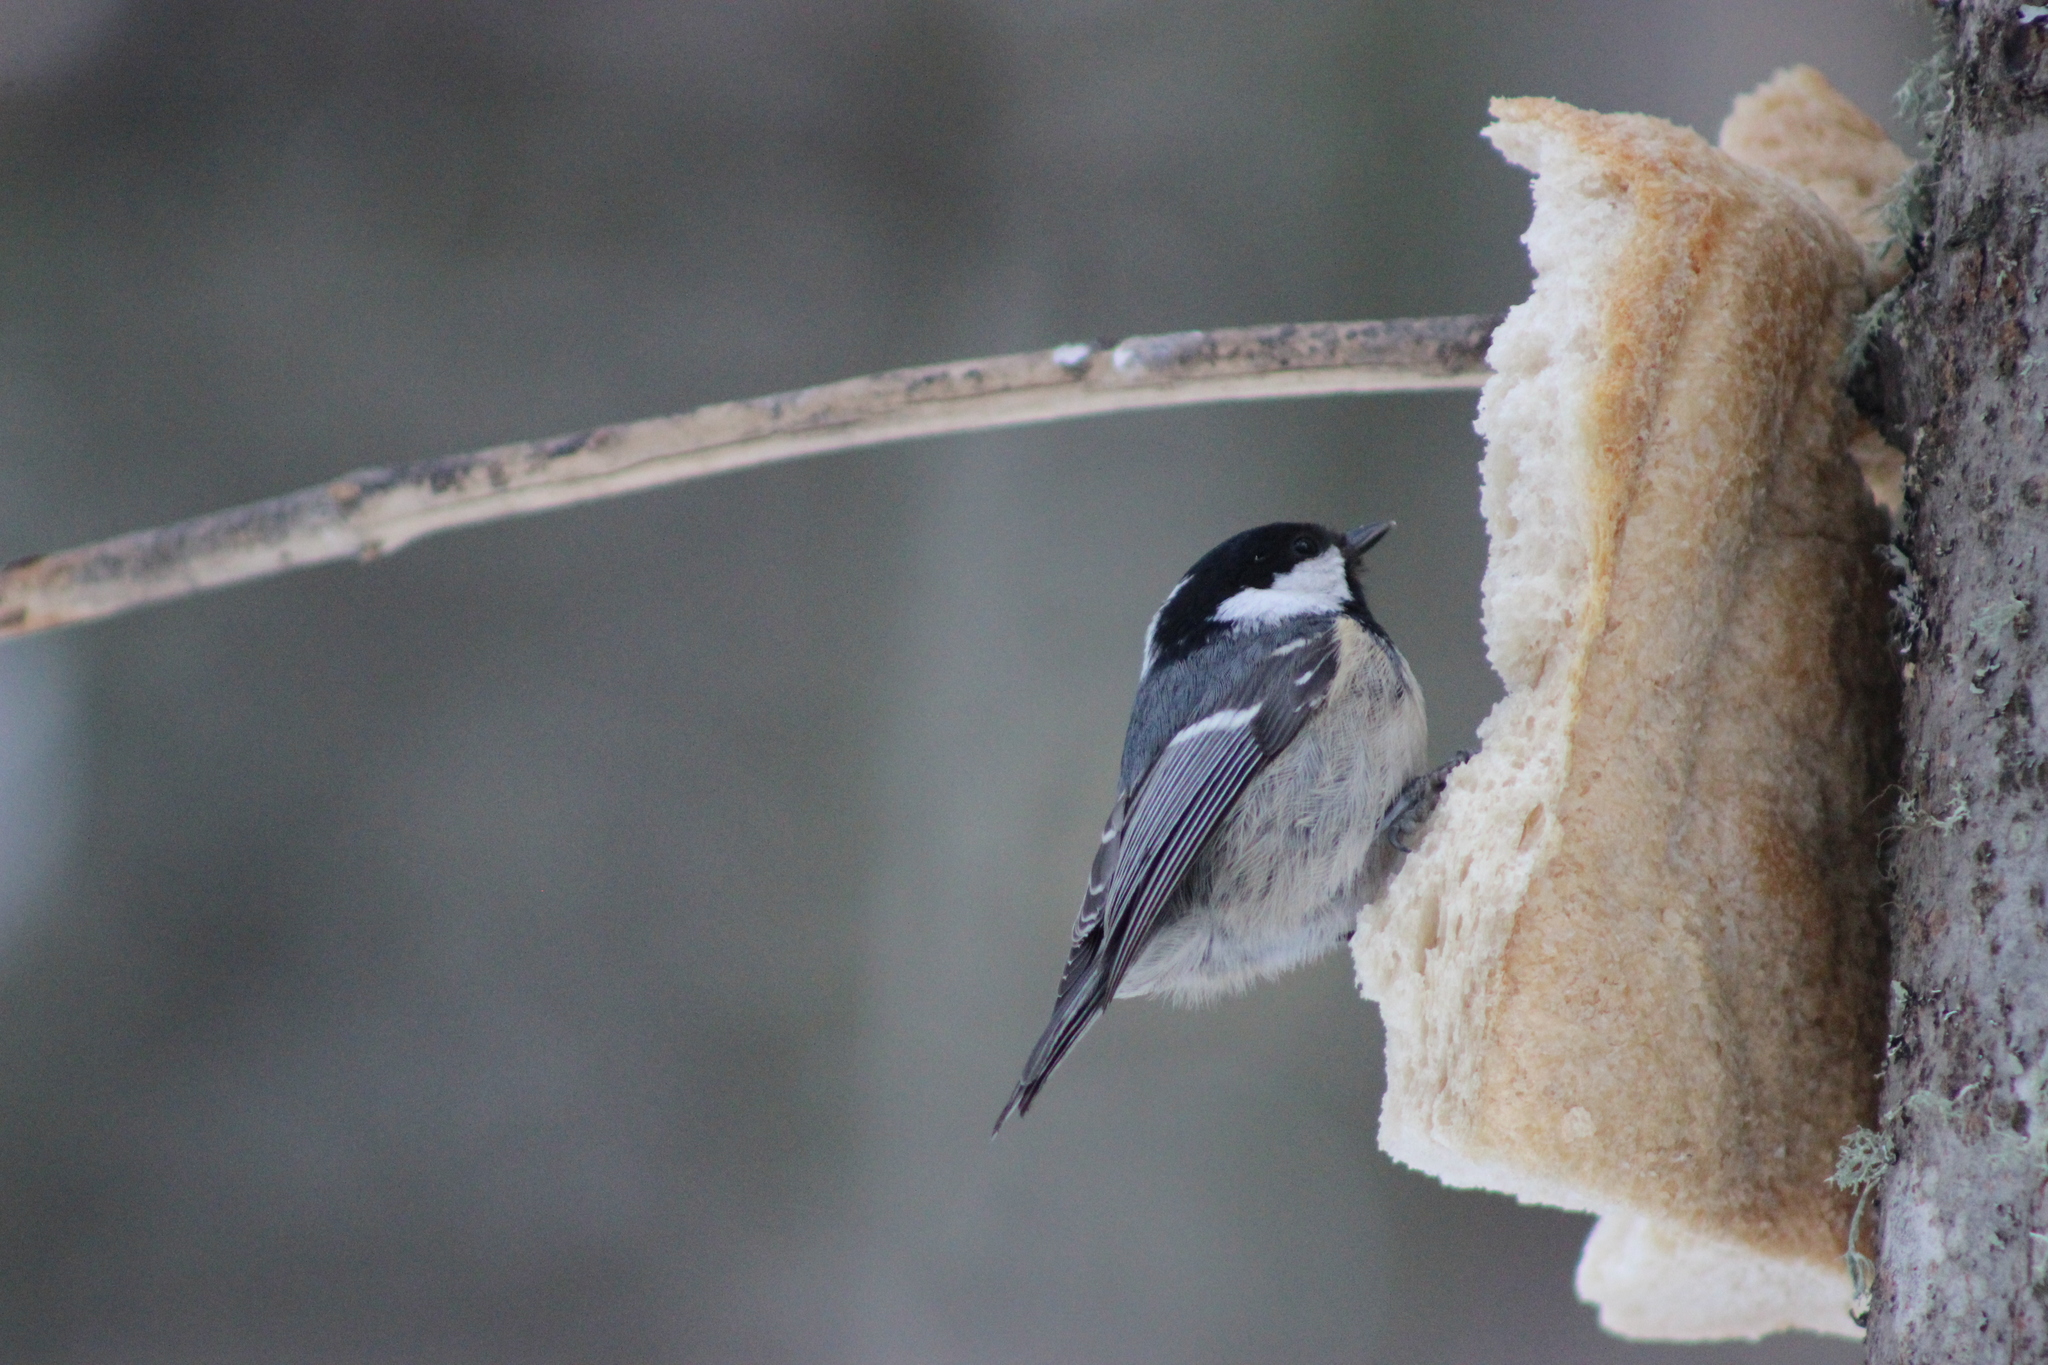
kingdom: Animalia
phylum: Chordata
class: Aves
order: Passeriformes
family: Paridae
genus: Periparus
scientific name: Periparus ater
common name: Coal tit
